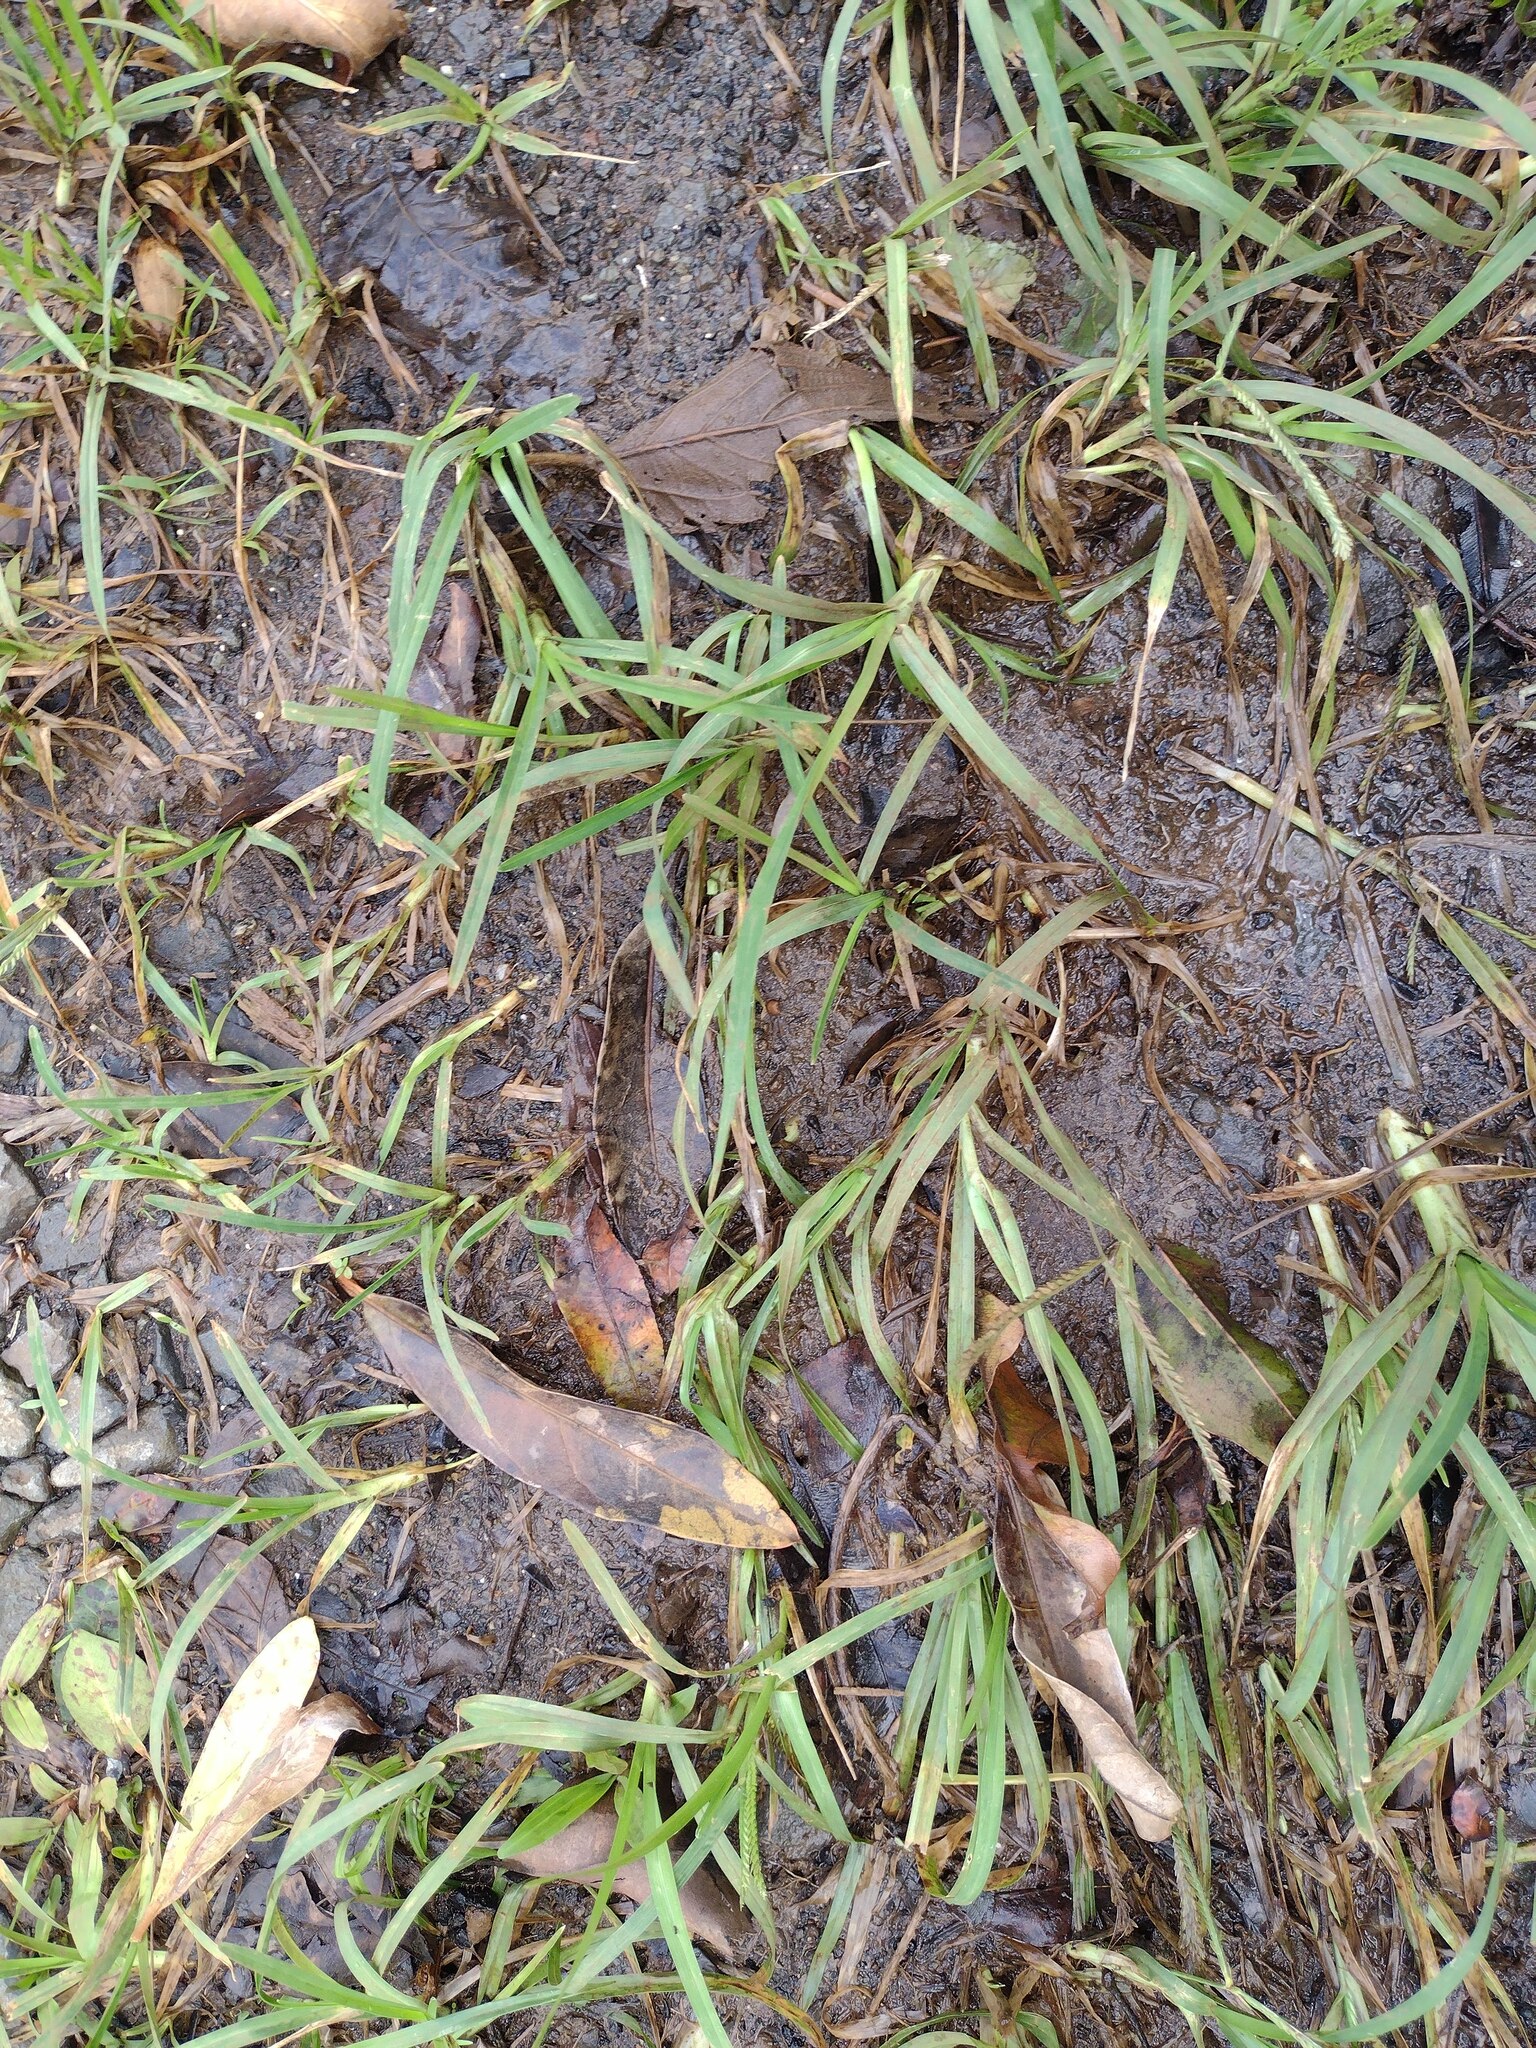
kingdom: Plantae
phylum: Tracheophyta
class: Liliopsida
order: Poales
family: Poaceae
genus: Axonopus
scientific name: Axonopus fissifolius
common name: Common carpetgrass
